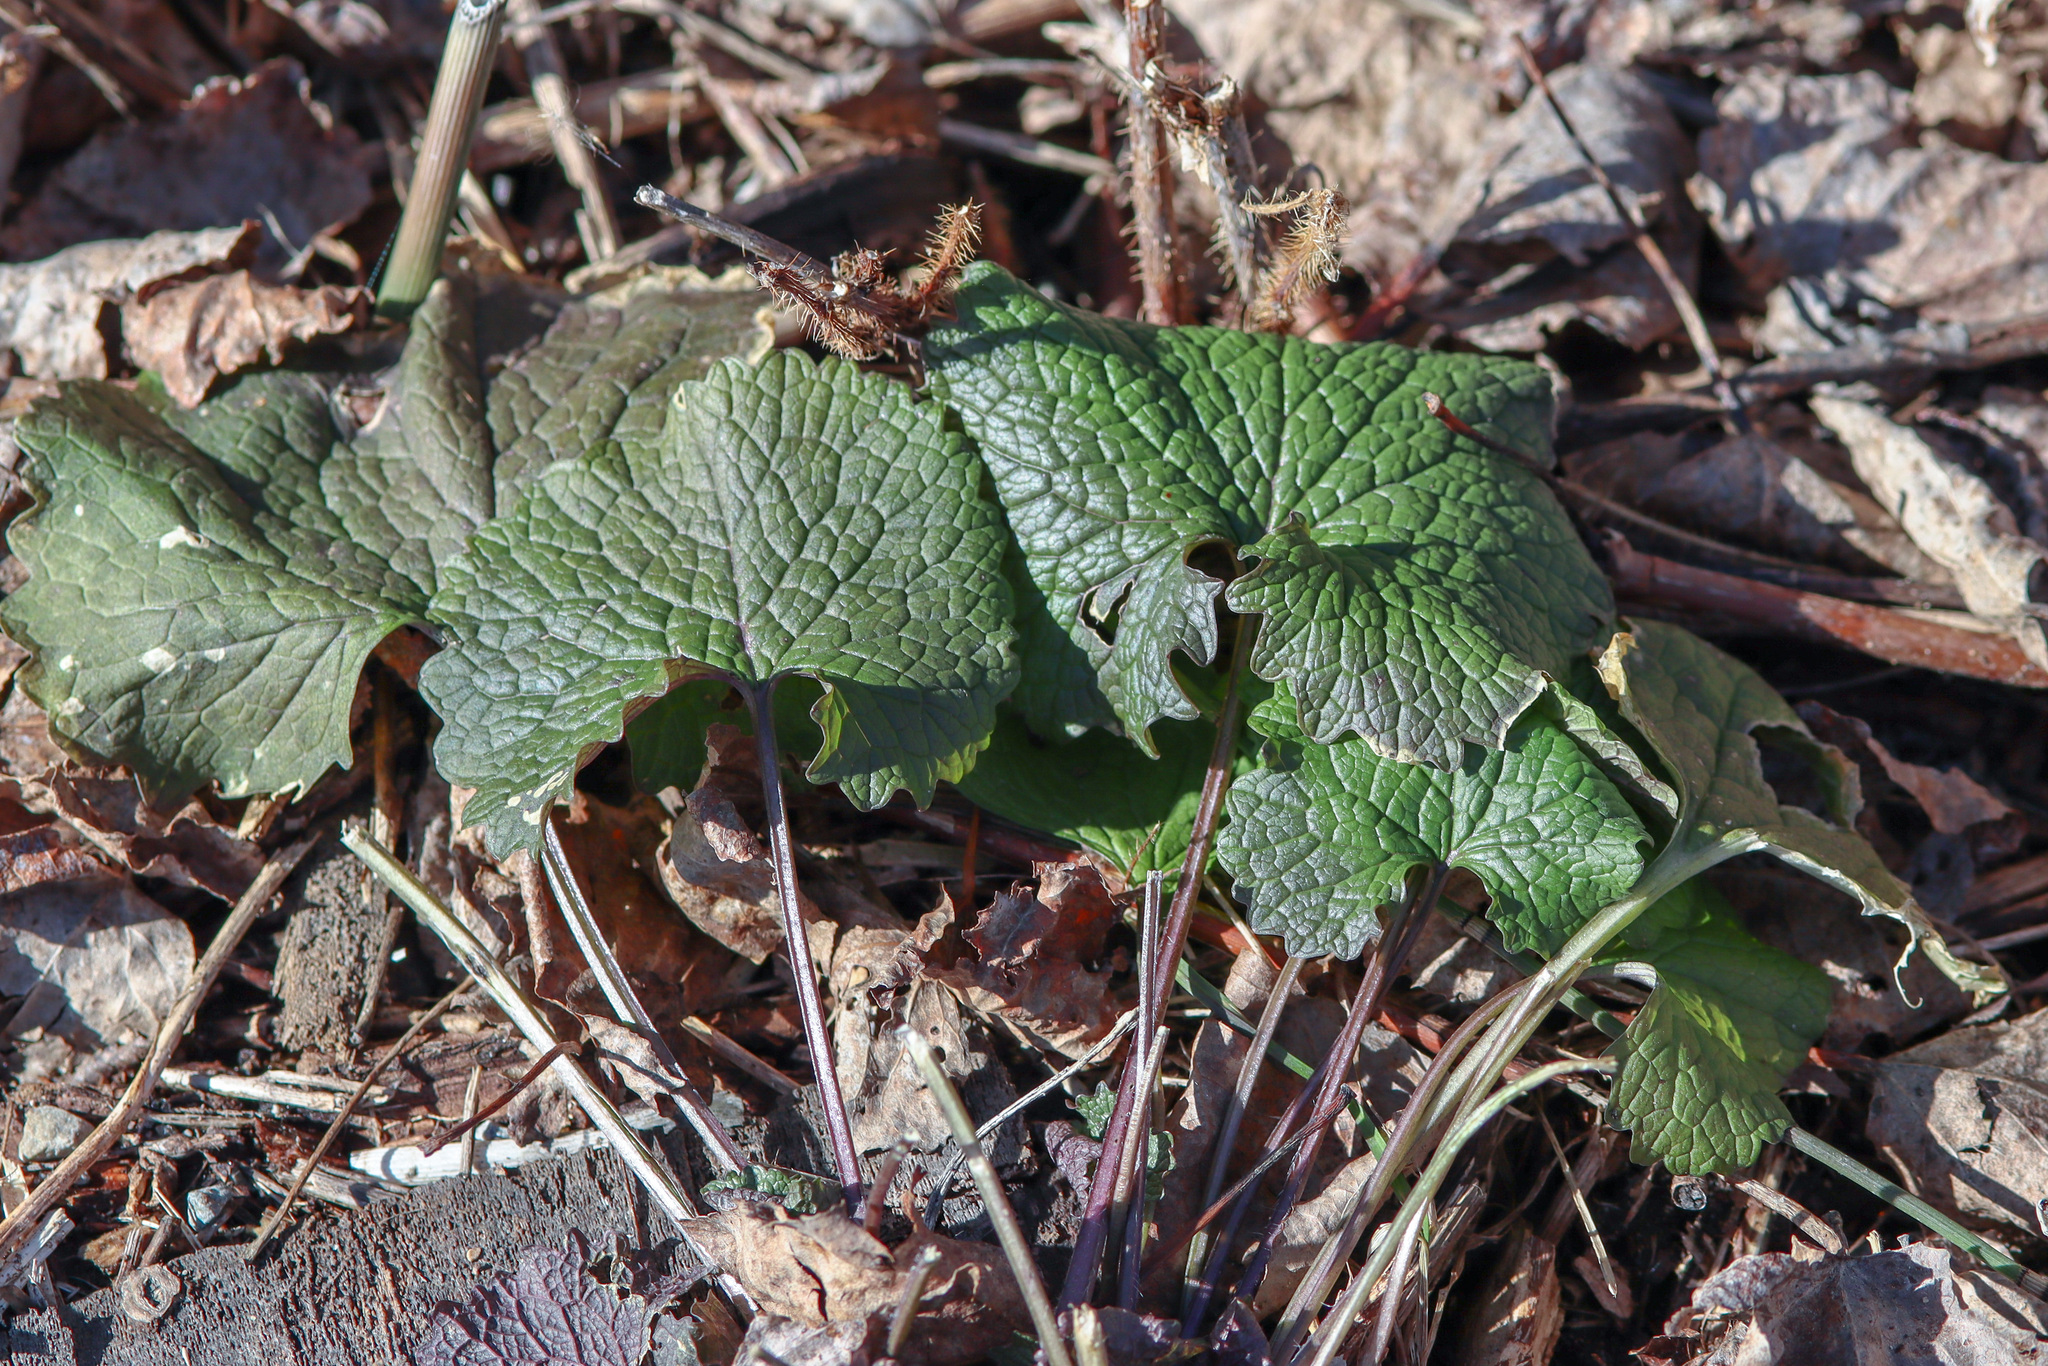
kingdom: Plantae
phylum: Tracheophyta
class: Magnoliopsida
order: Brassicales
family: Brassicaceae
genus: Alliaria
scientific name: Alliaria petiolata
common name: Garlic mustard
